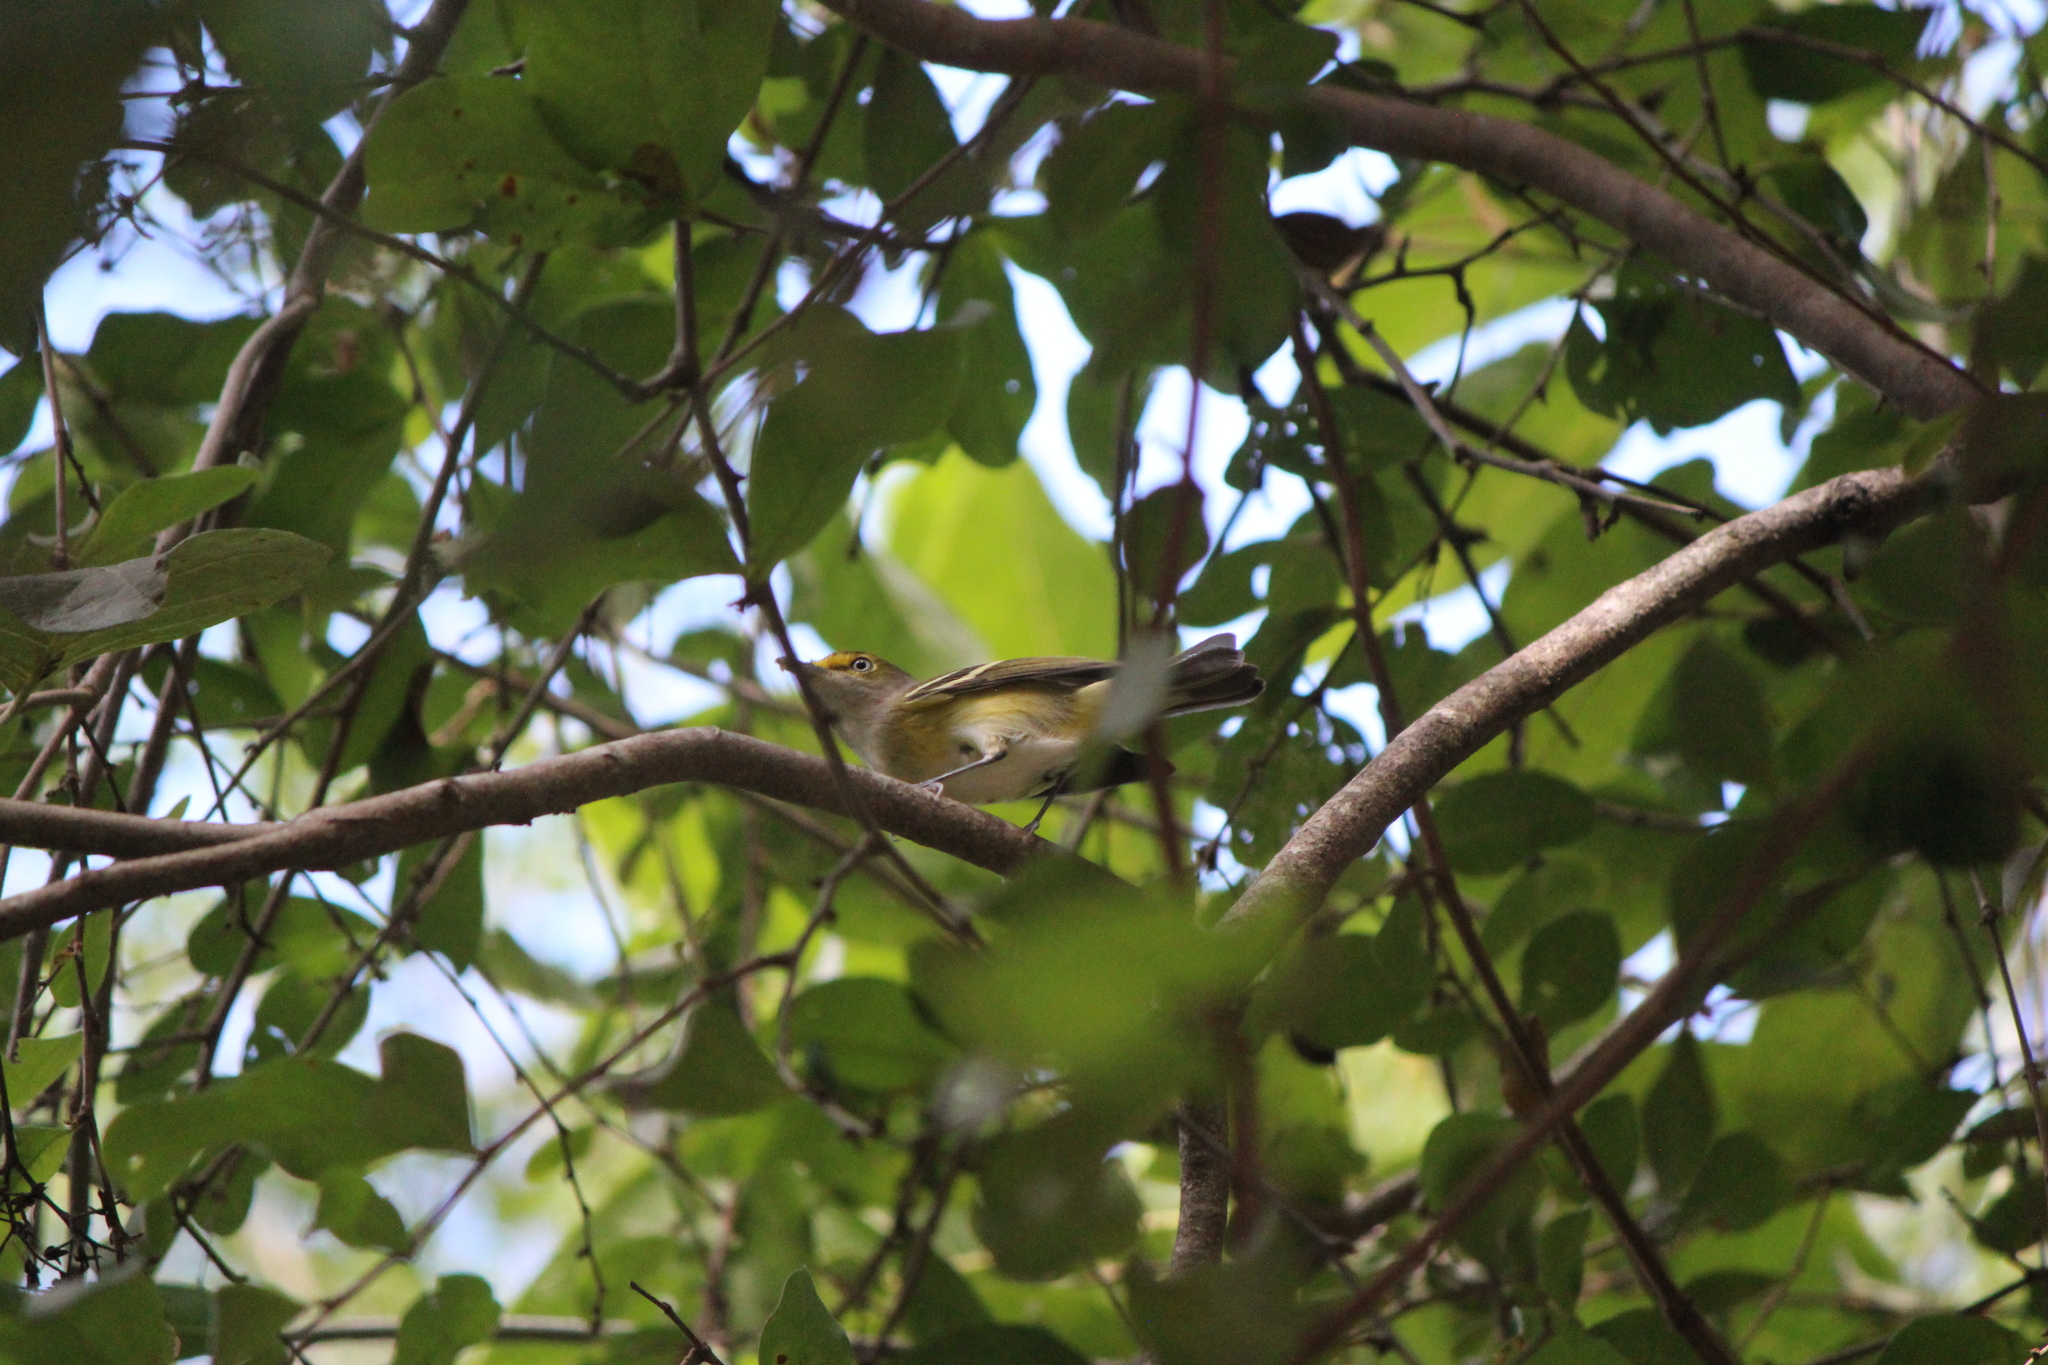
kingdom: Animalia
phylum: Chordata
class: Aves
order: Passeriformes
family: Vireonidae
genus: Vireo
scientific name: Vireo griseus
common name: White-eyed vireo
